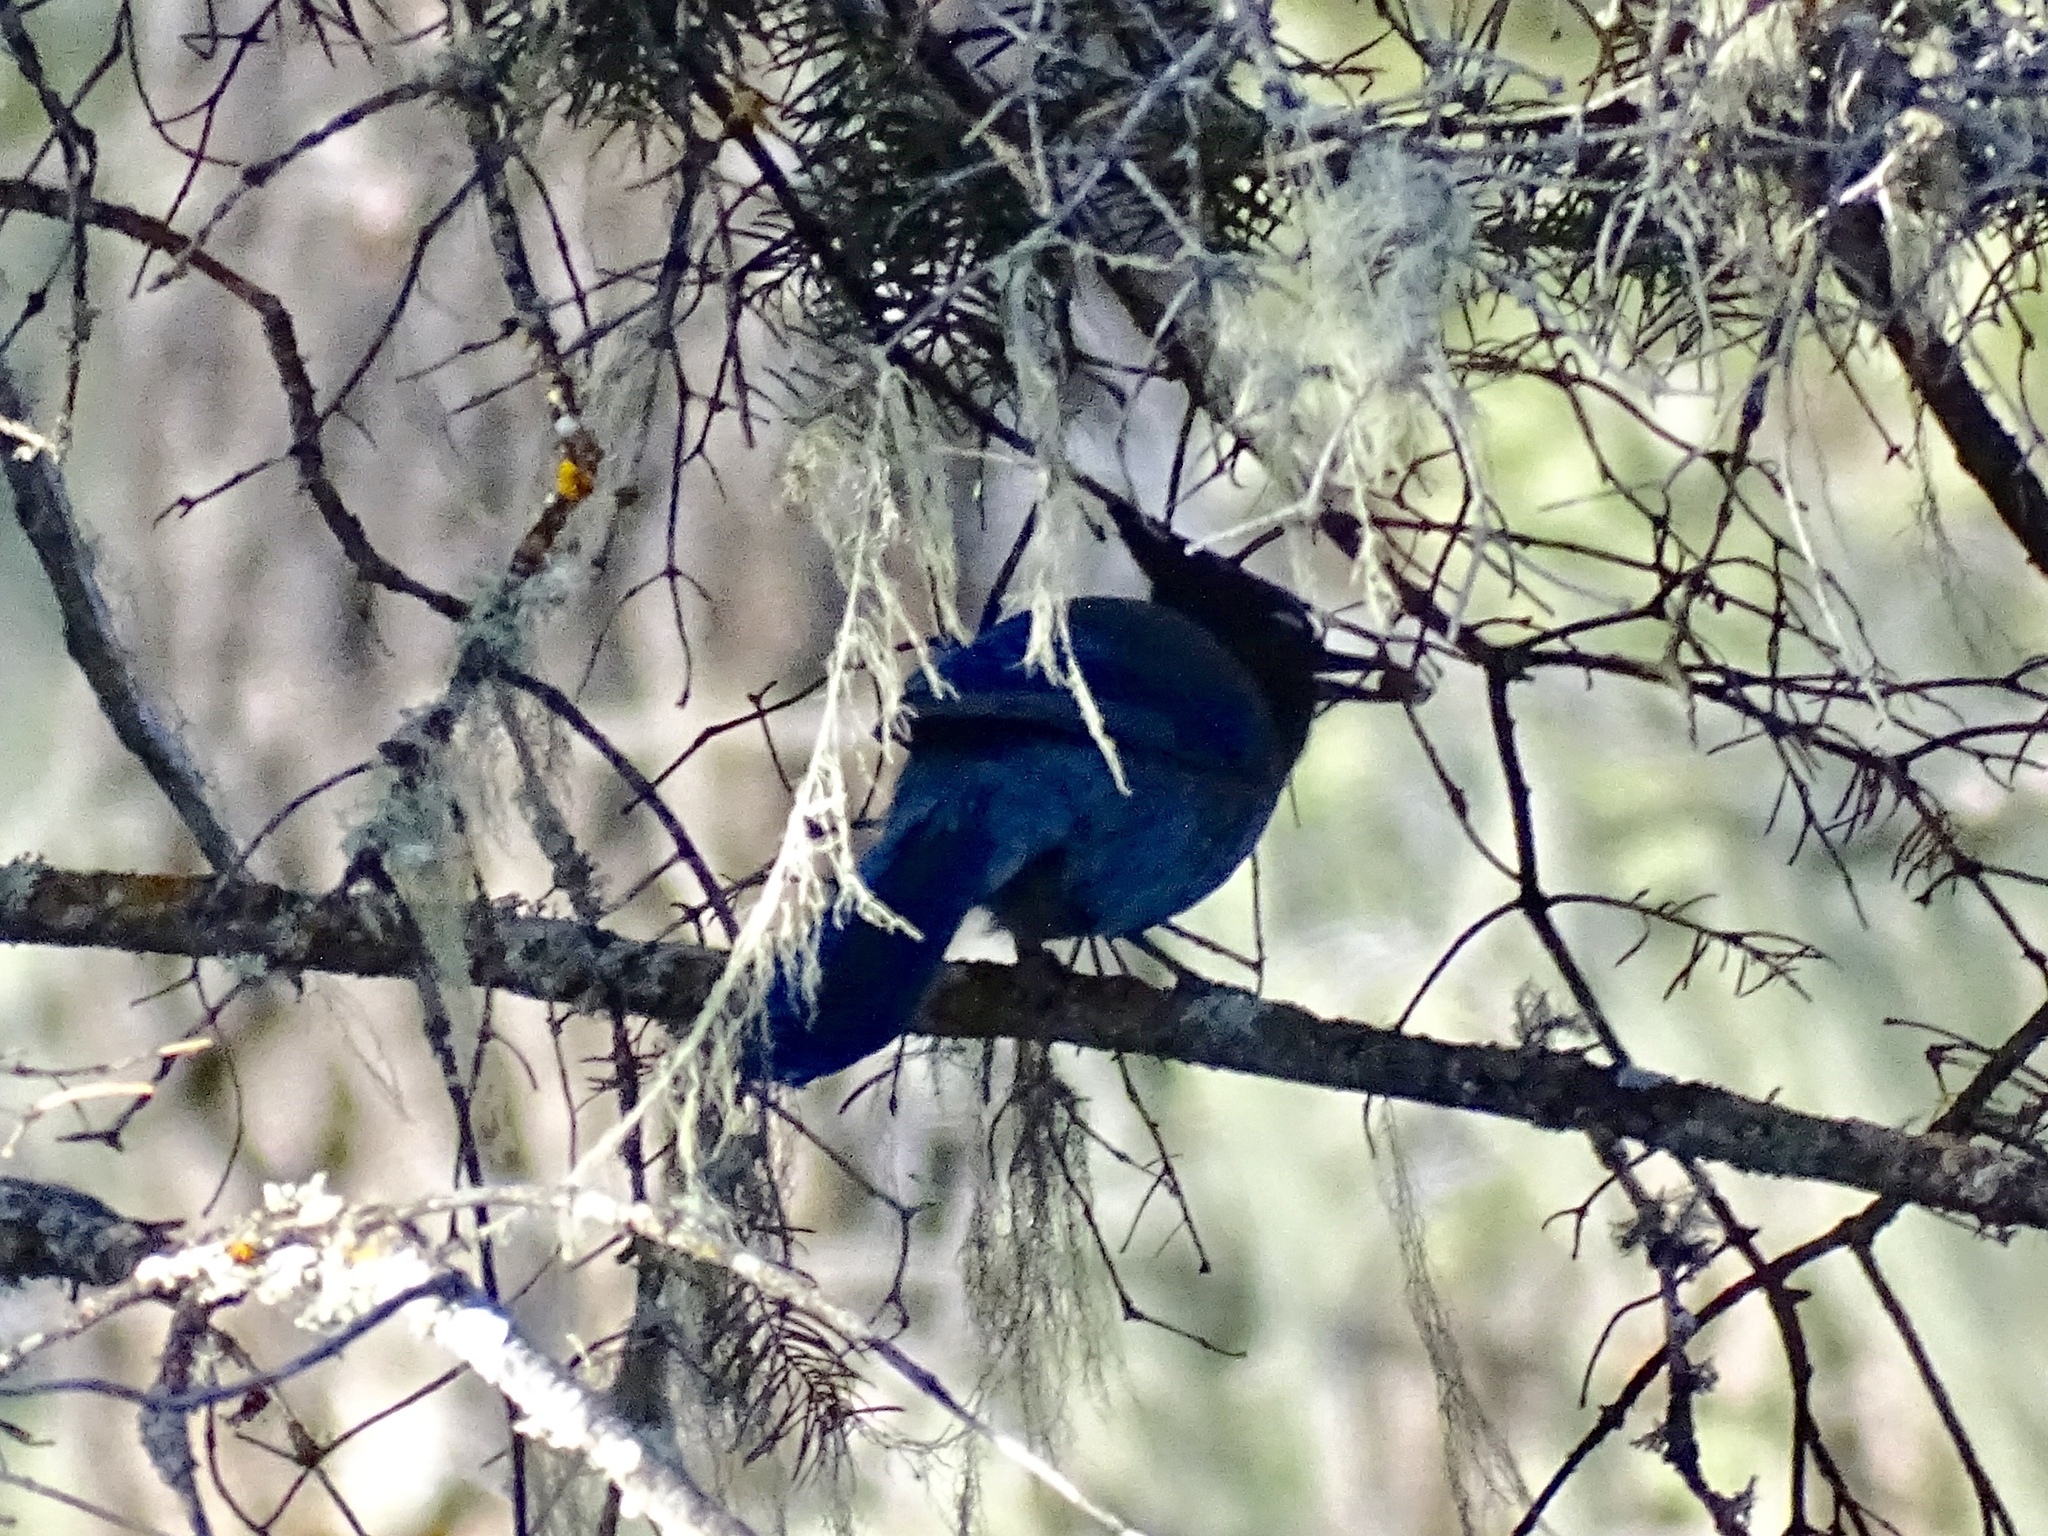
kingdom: Animalia
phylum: Chordata
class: Aves
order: Passeriformes
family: Corvidae
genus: Cyanocitta
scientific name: Cyanocitta stelleri
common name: Steller's jay
